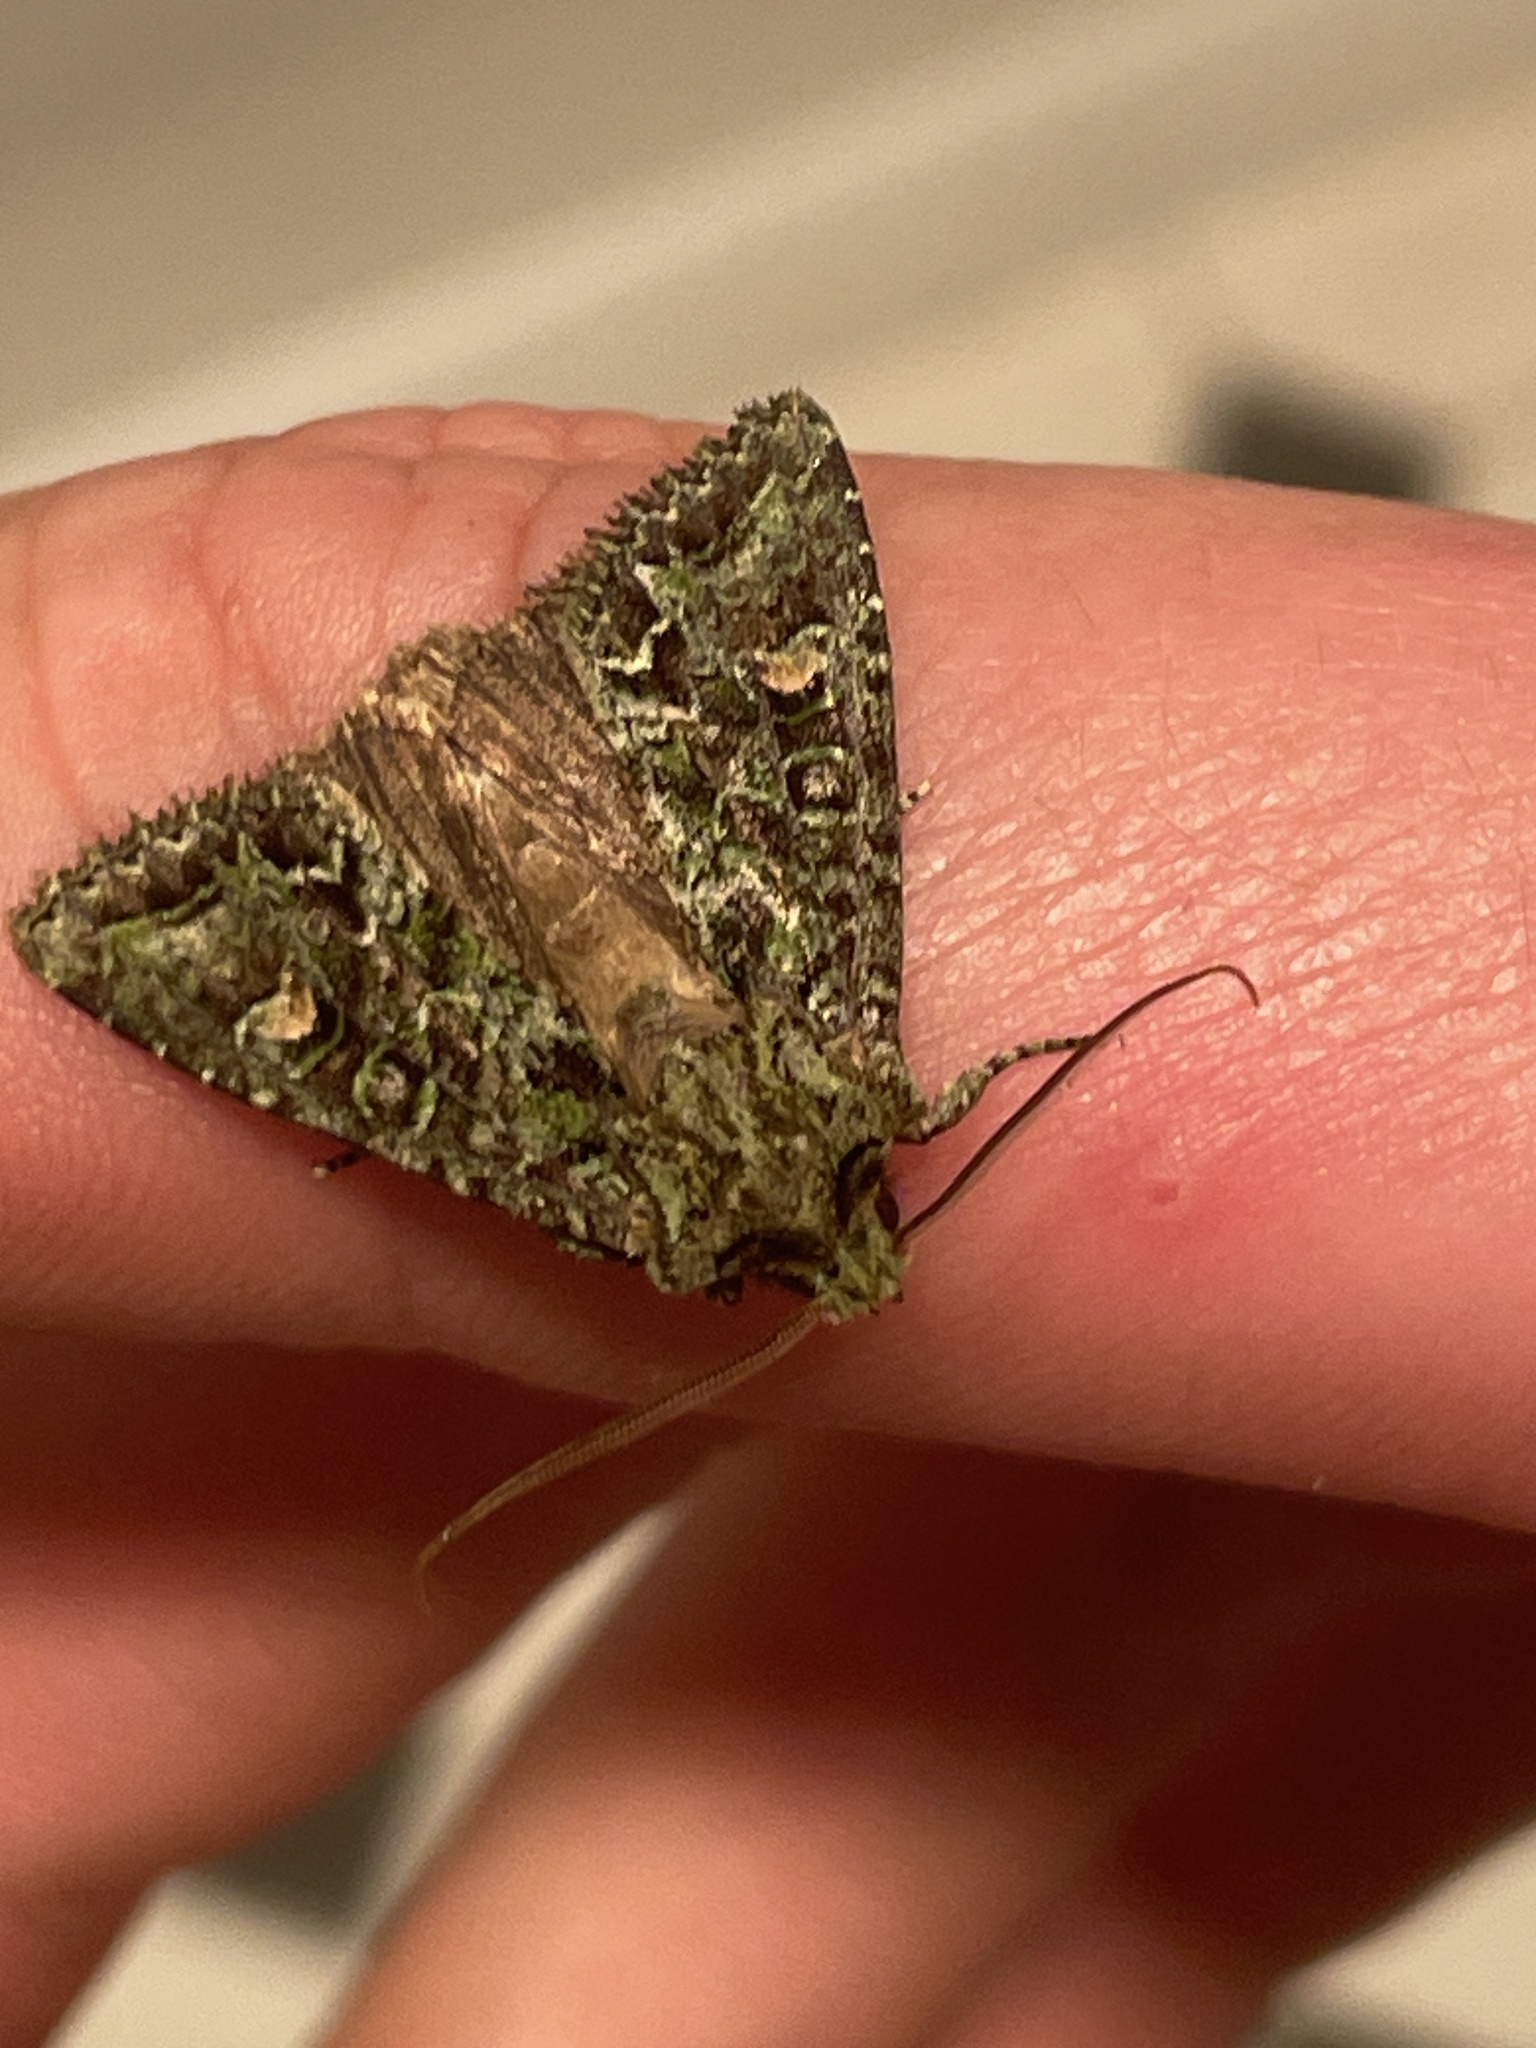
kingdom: Animalia
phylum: Arthropoda
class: Insecta
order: Lepidoptera
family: Noctuidae
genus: Ichneutica
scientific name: Ichneutica
